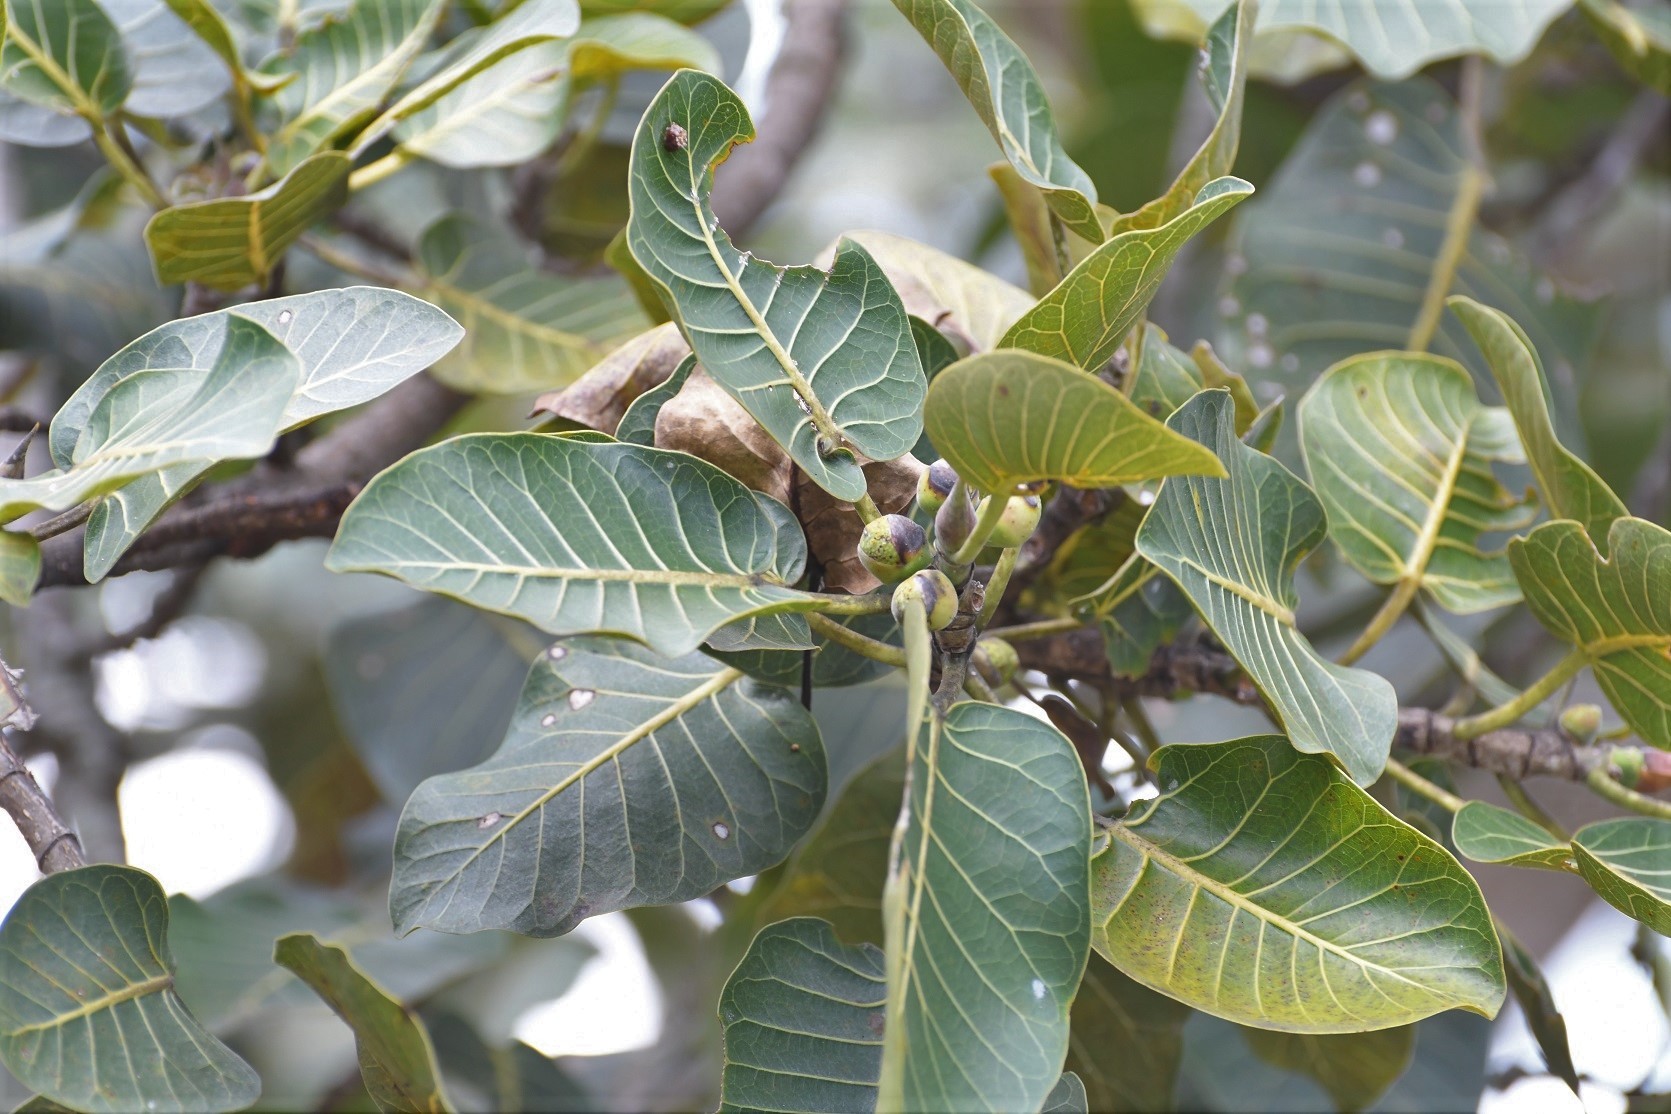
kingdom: Plantae
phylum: Tracheophyta
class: Magnoliopsida
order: Rosales
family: Moraceae
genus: Ficus
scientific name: Ficus aurea
